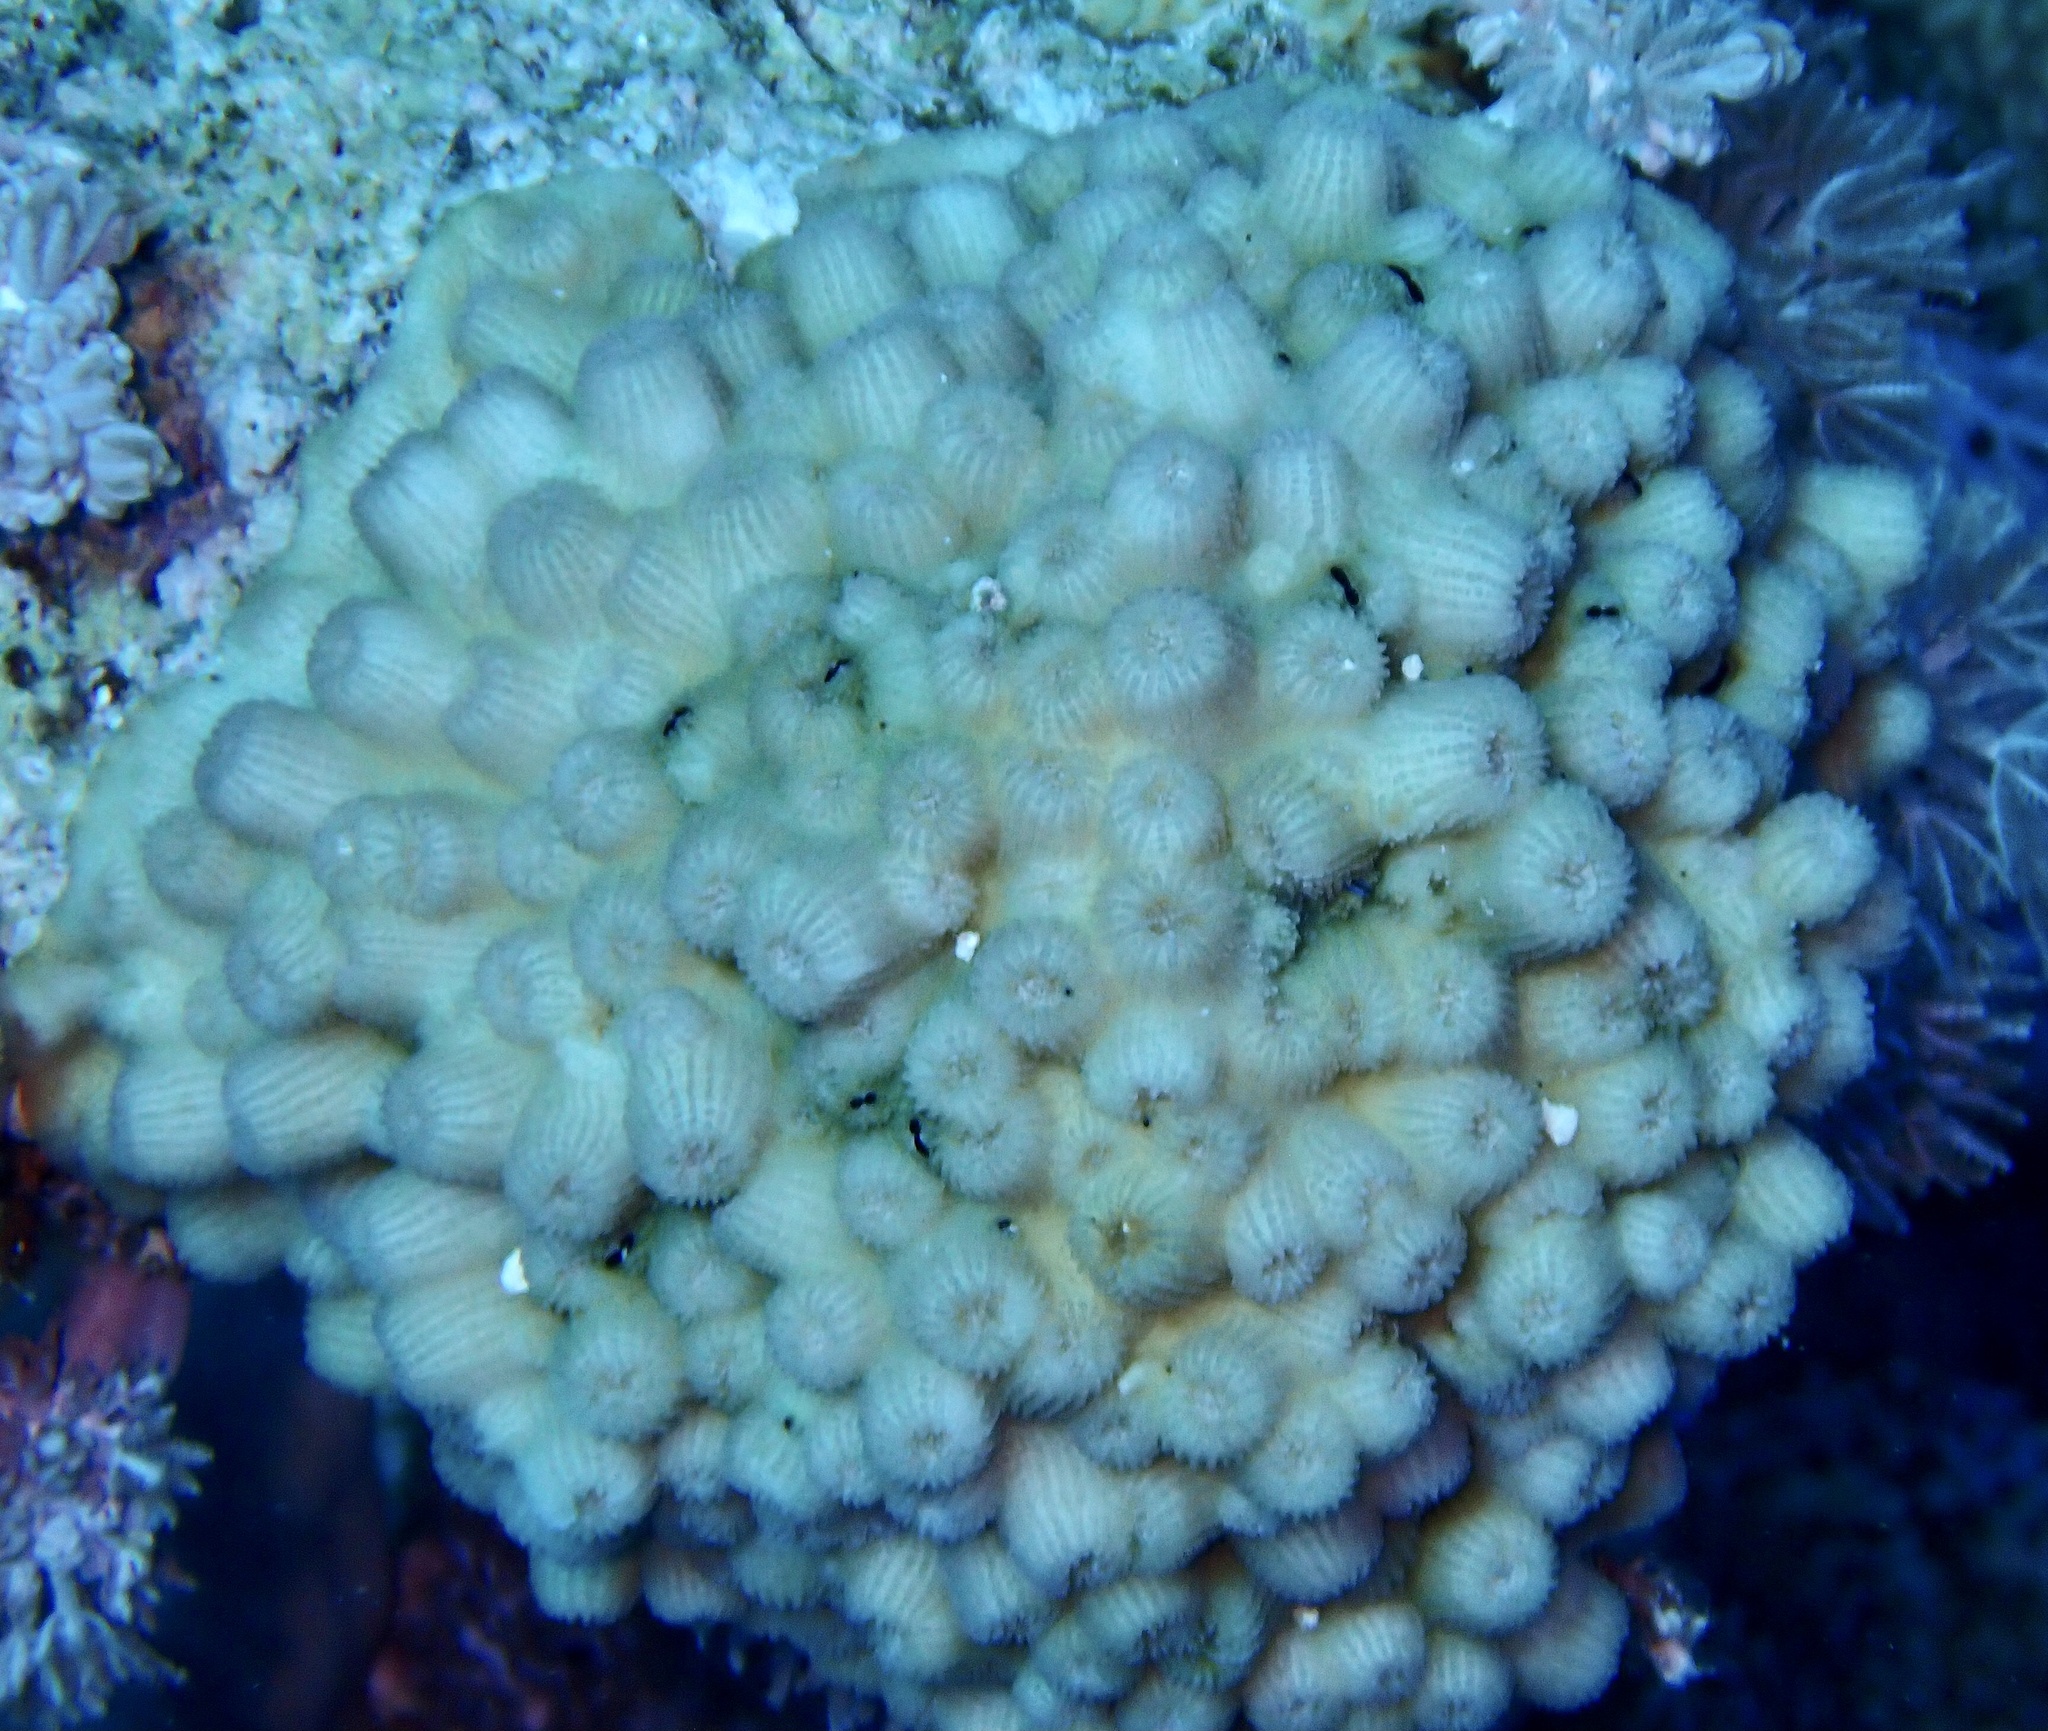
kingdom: Animalia
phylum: Cnidaria
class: Anthozoa
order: Scleractinia
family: Merulinidae
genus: Echinopora
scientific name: Echinopora forskaliana
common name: Hedgehog coral
